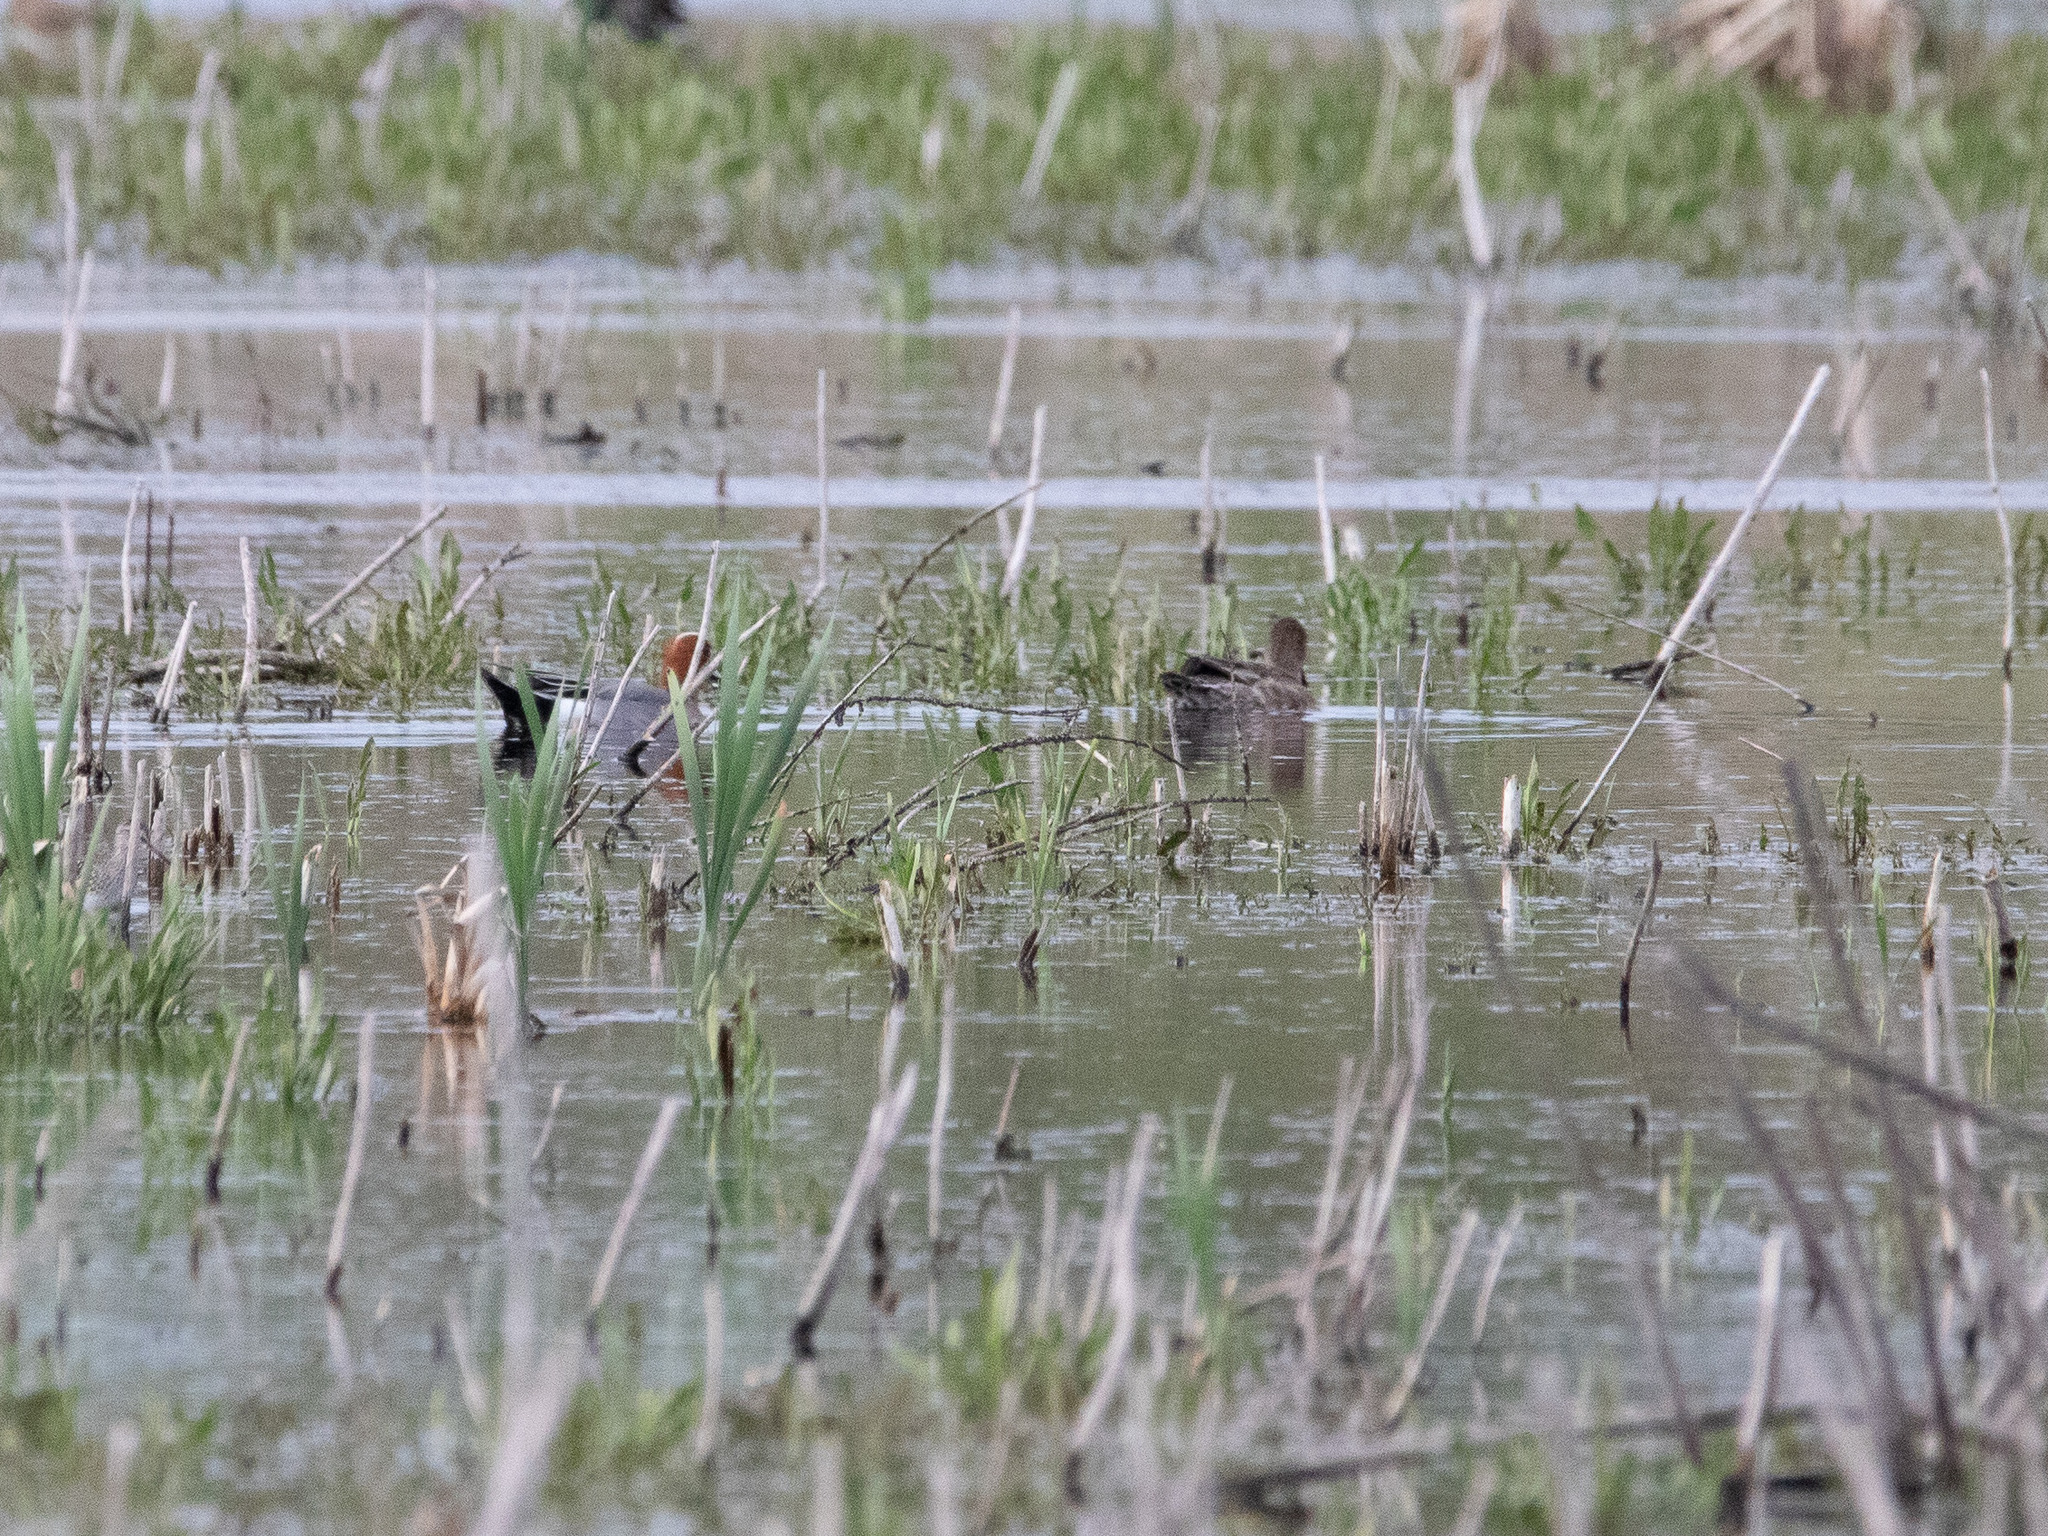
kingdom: Animalia
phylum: Chordata
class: Aves
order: Anseriformes
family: Anatidae
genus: Mareca
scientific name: Mareca penelope
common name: Eurasian wigeon
